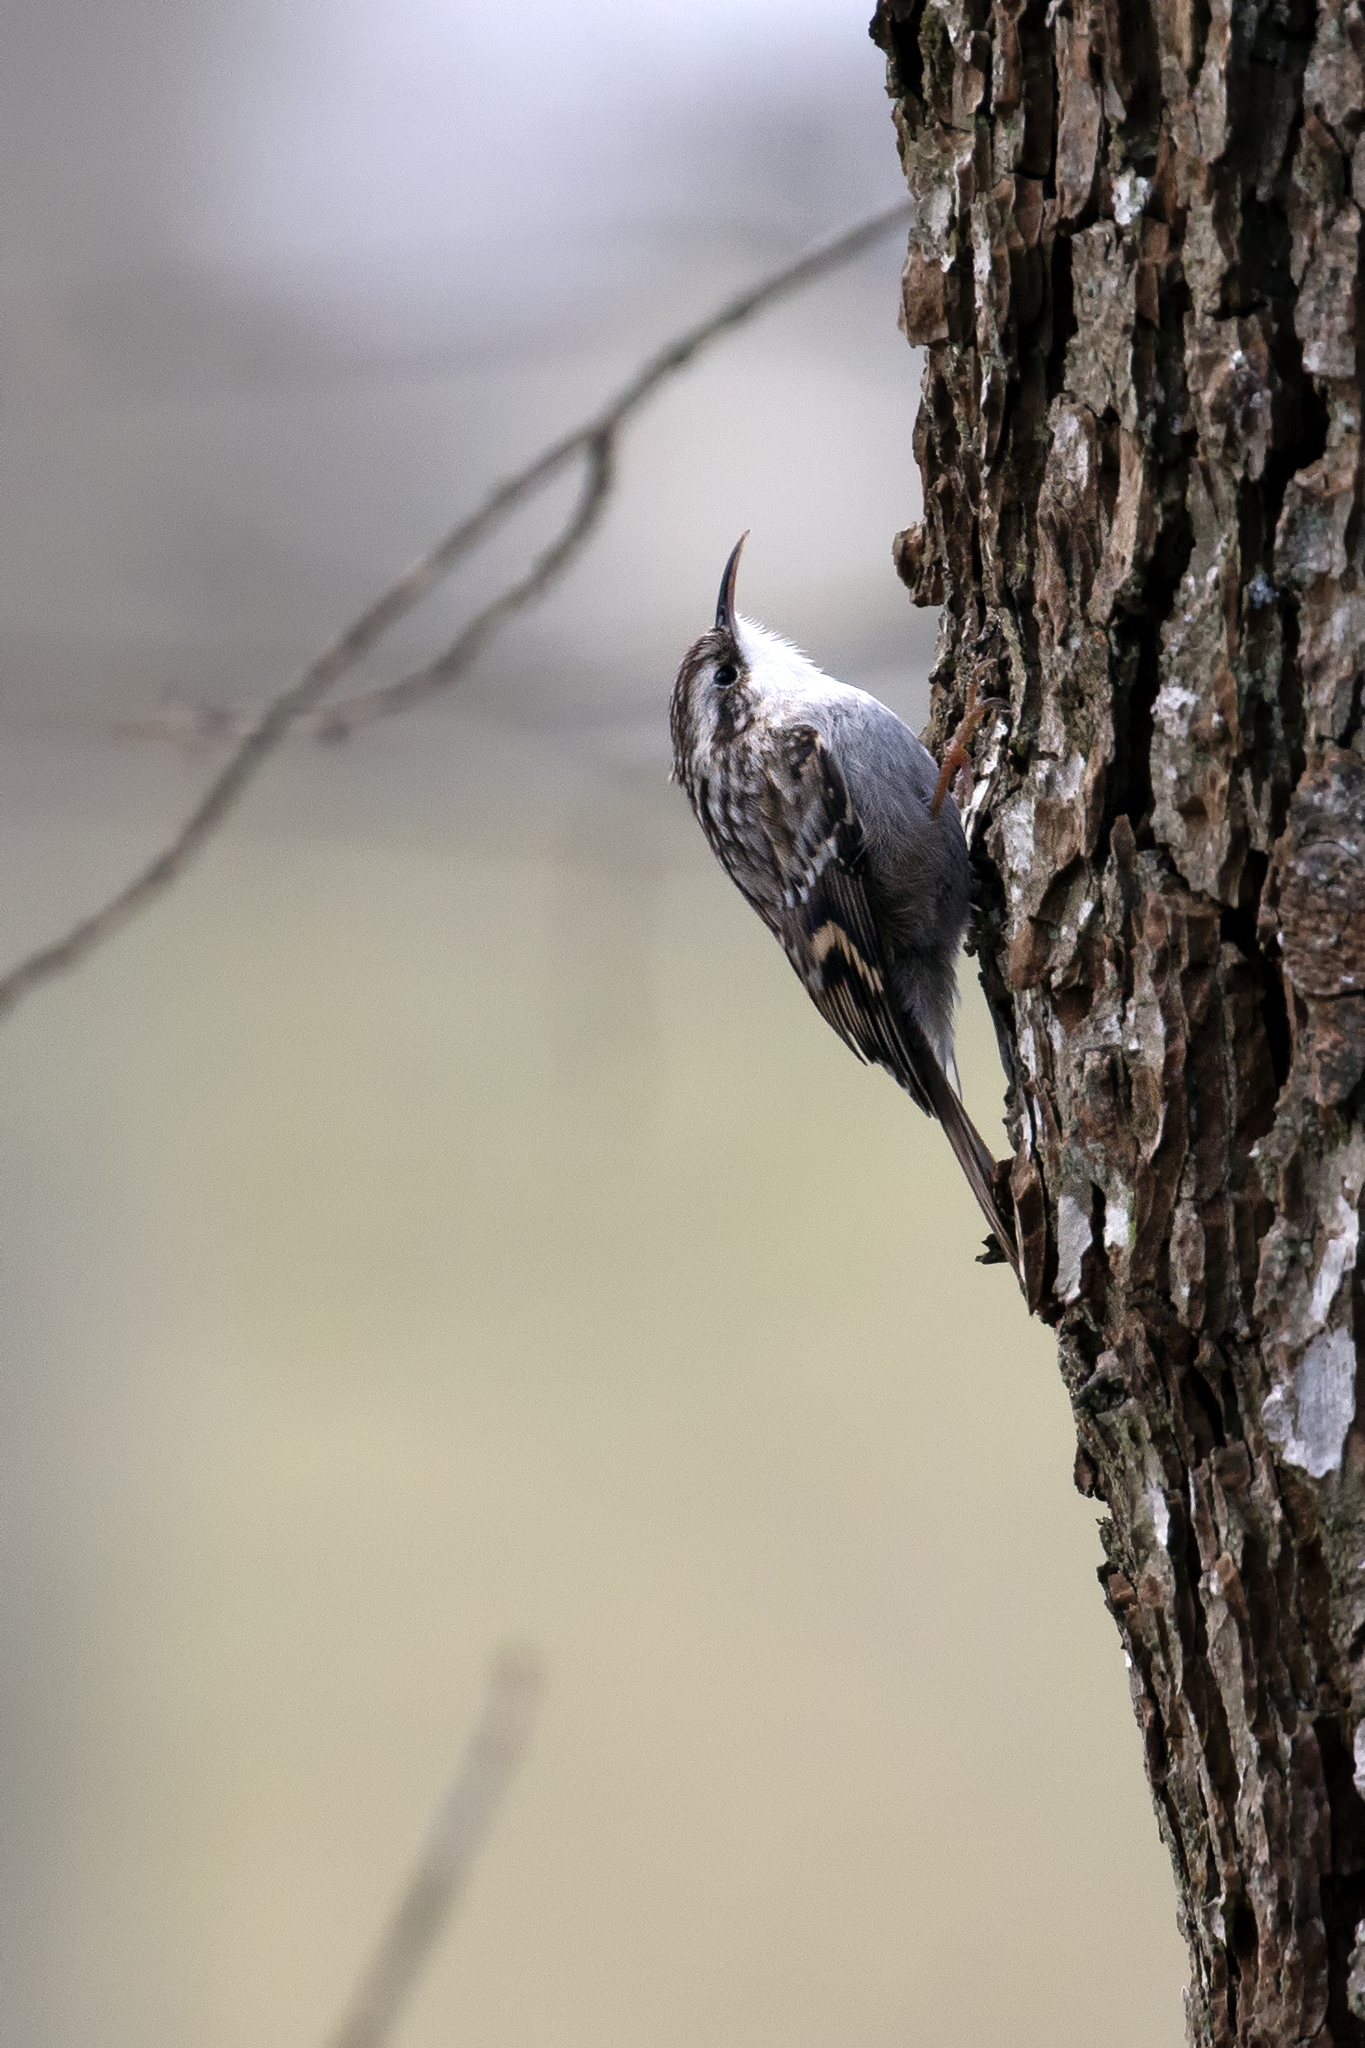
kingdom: Animalia
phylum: Chordata
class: Aves
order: Passeriformes
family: Certhiidae
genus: Certhia
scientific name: Certhia brachydactyla
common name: Short-toed treecreeper
